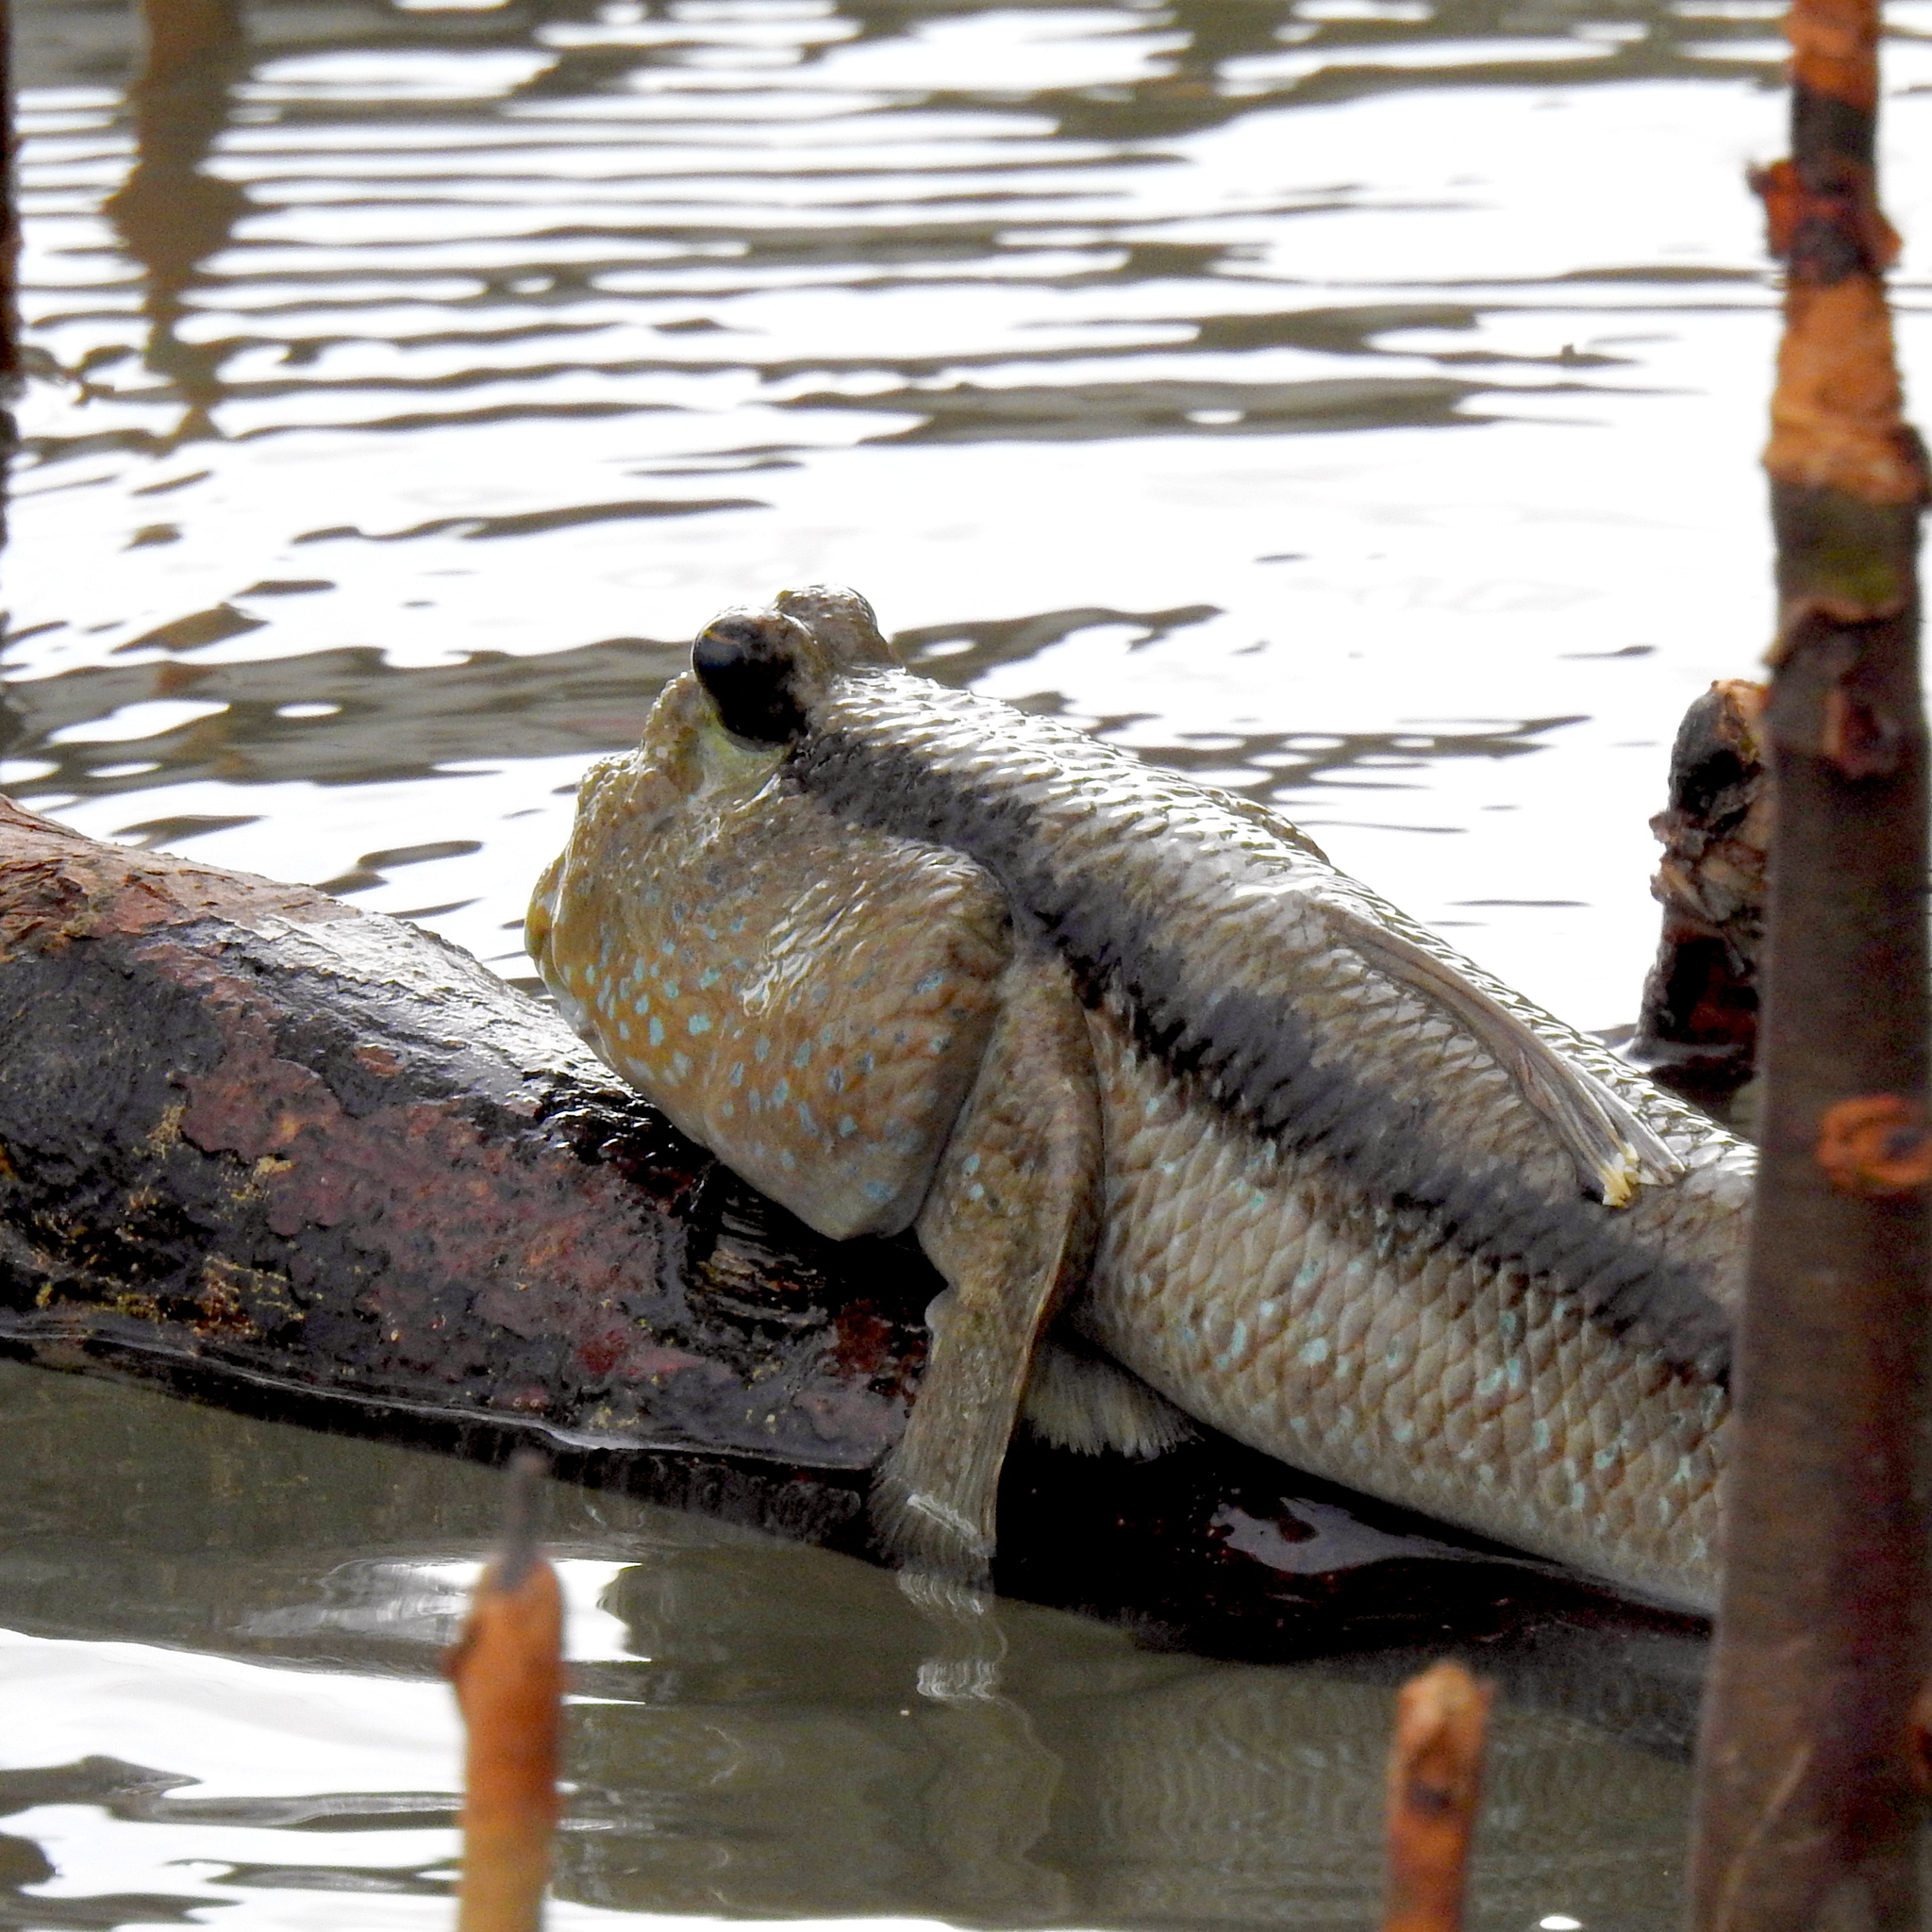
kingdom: Animalia
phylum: Chordata
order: Perciformes
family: Gobiidae
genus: Periophthalmodon
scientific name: Periophthalmodon schlosseri
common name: Giant mudskipper
